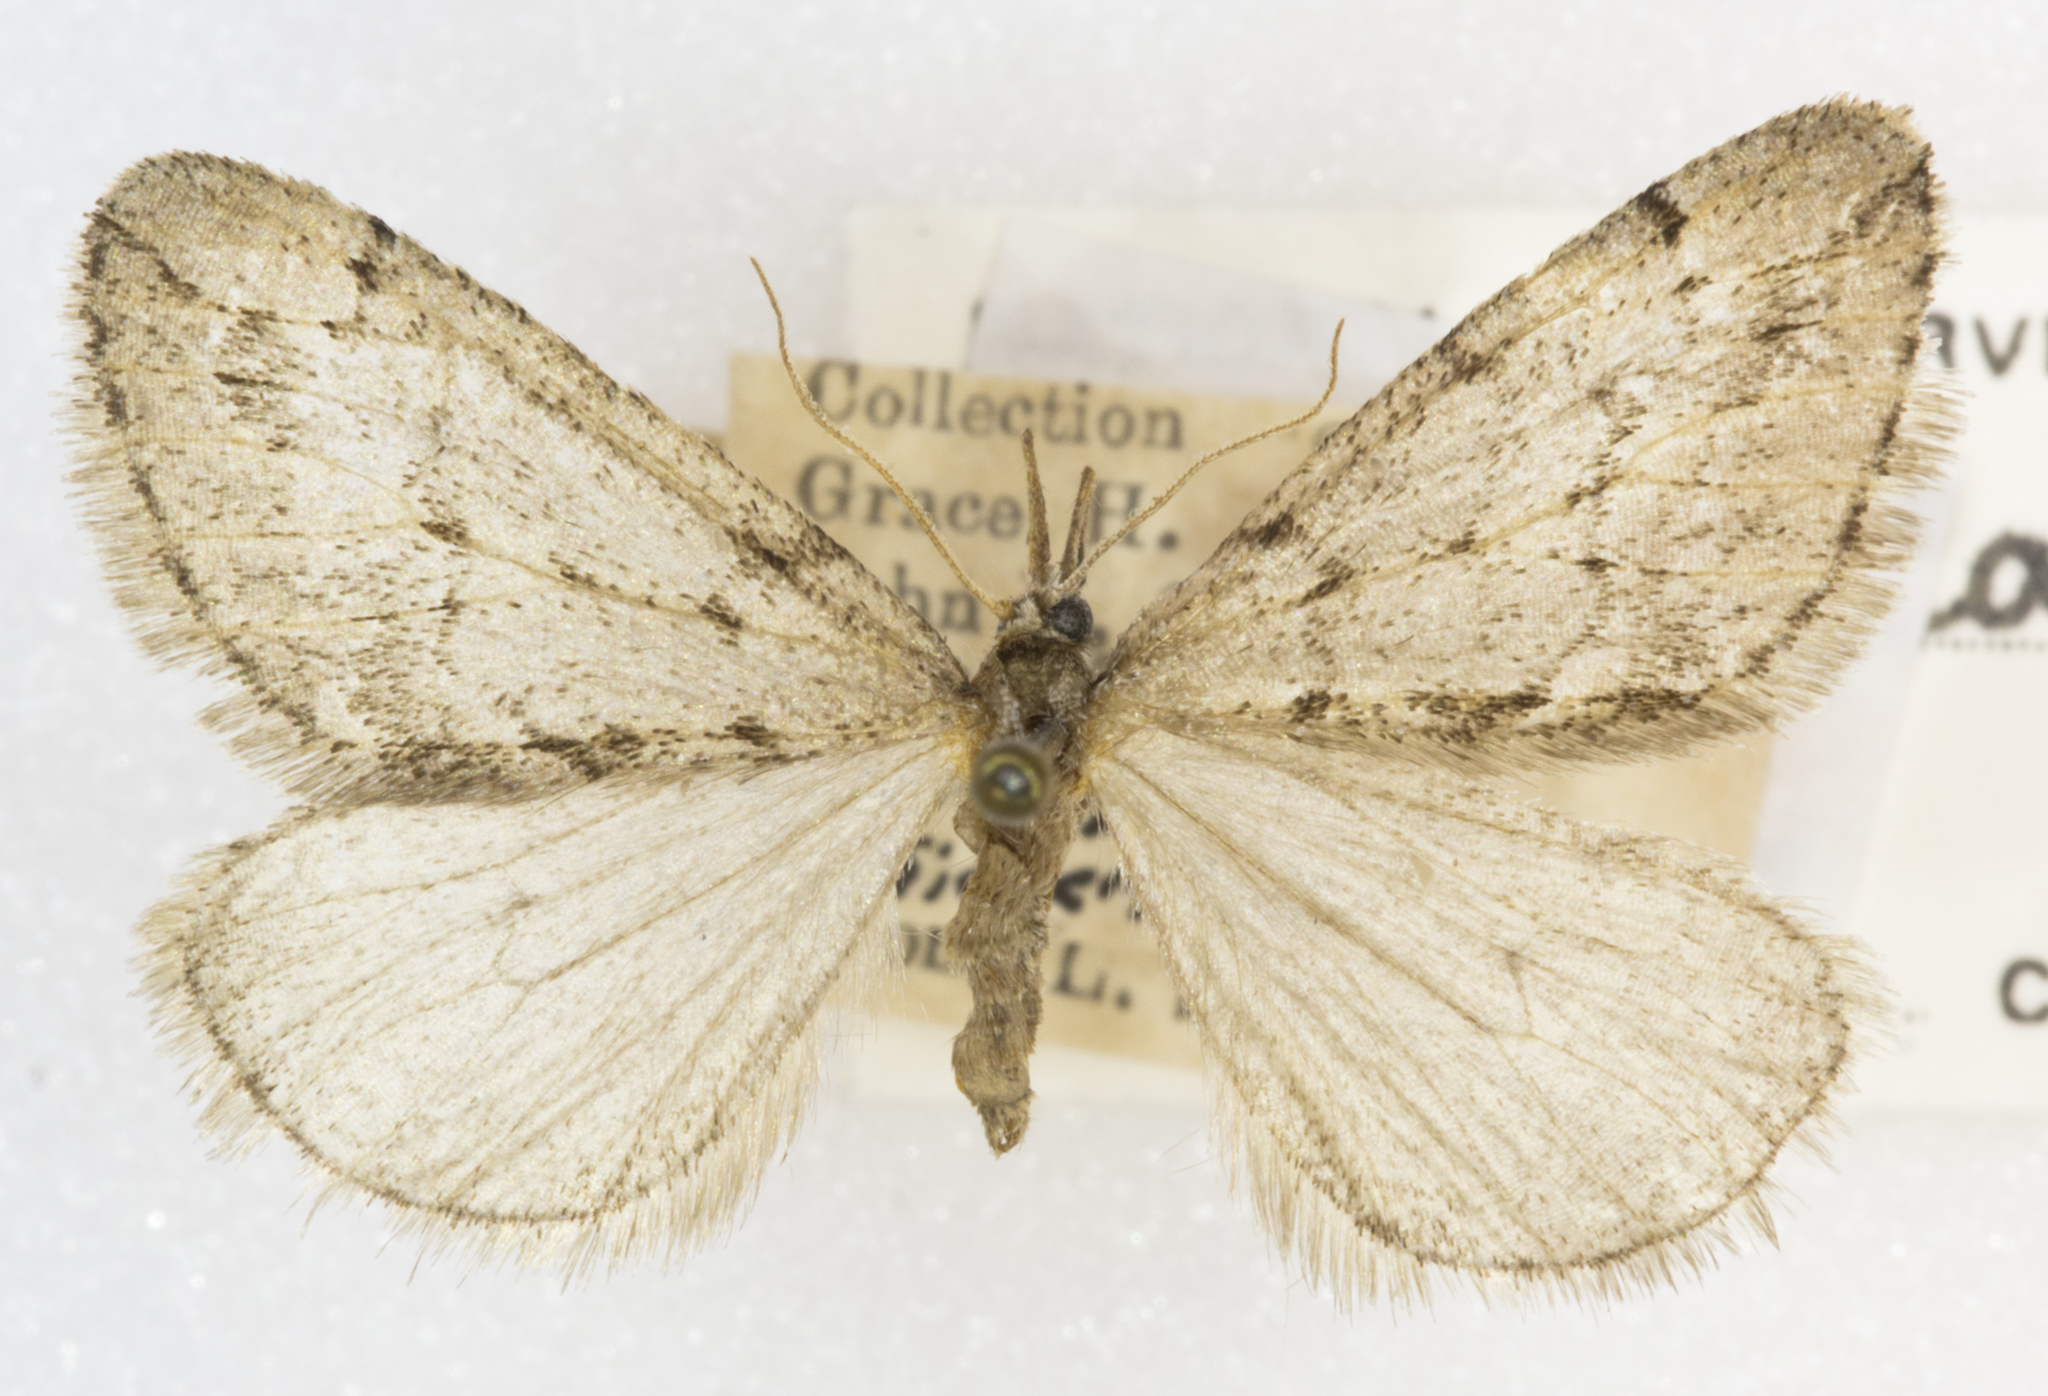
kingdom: Animalia
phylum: Arthropoda
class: Insecta
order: Lepidoptera
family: Geometridae
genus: Paleacrita
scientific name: Paleacrita vernata
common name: Spring cankerworm
